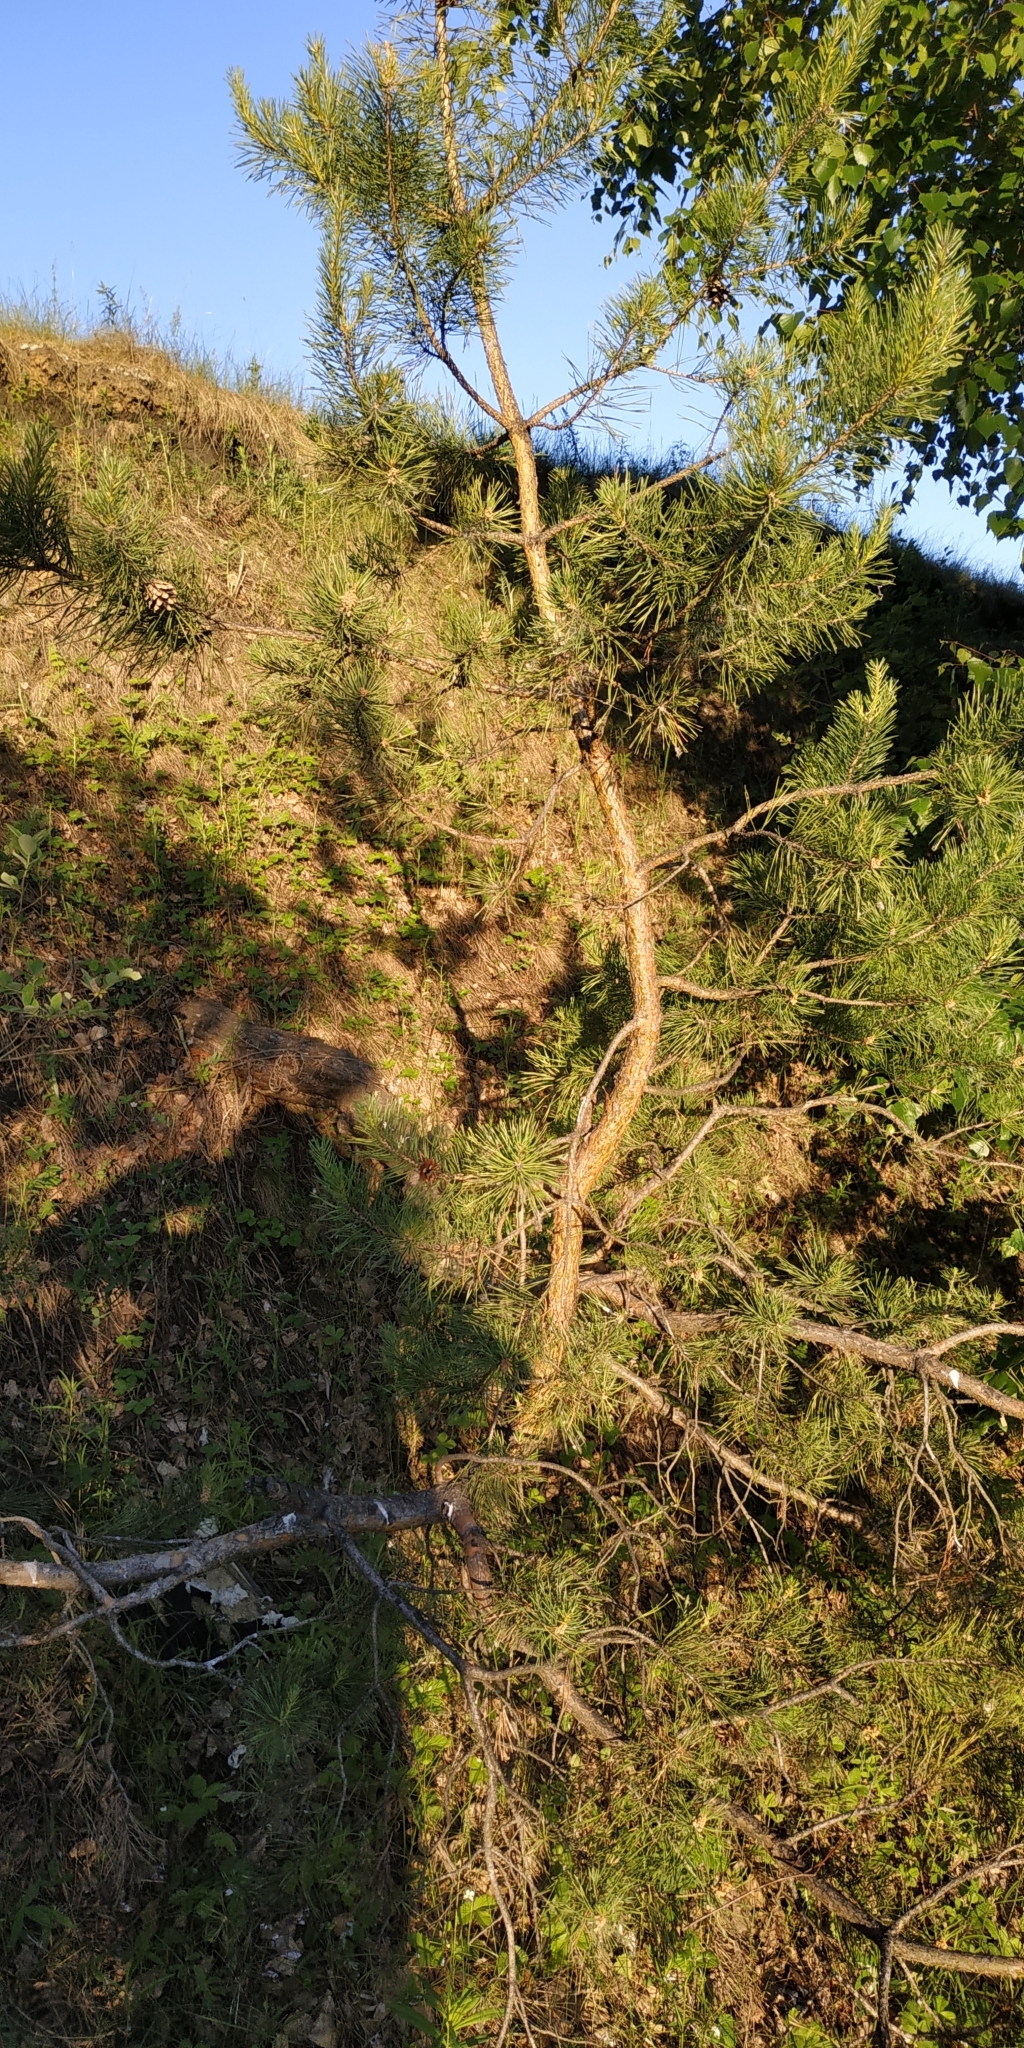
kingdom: Plantae
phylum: Tracheophyta
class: Pinopsida
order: Pinales
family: Pinaceae
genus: Pinus
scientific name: Pinus sylvestris
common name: Scots pine
